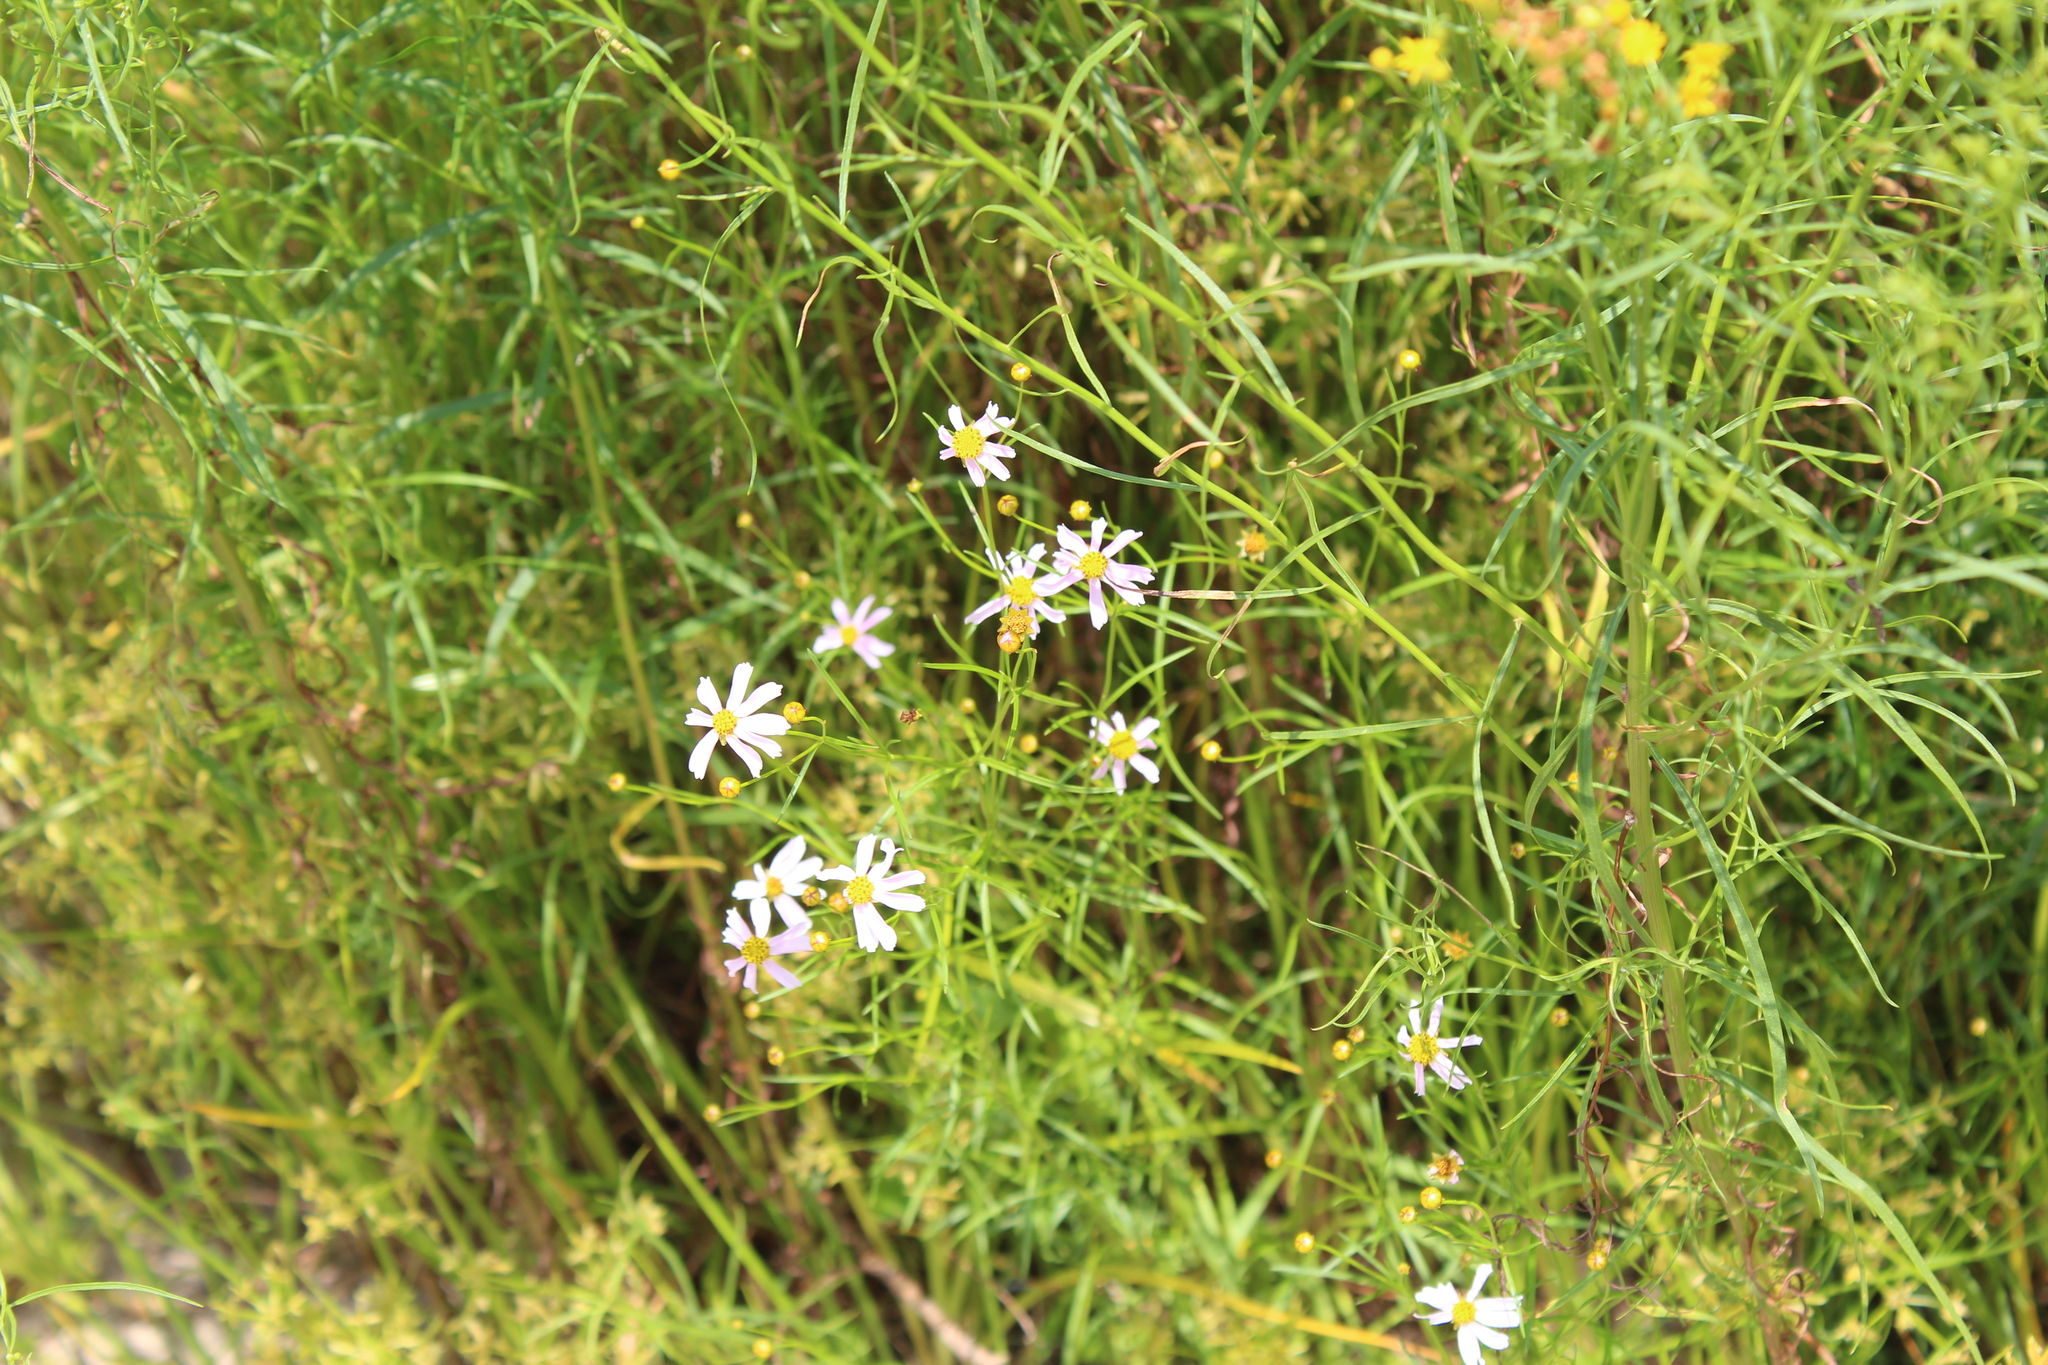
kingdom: Plantae
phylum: Tracheophyta
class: Magnoliopsida
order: Asterales
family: Asteraceae
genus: Coreopsis
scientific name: Coreopsis rosea
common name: Pink coreopsis
